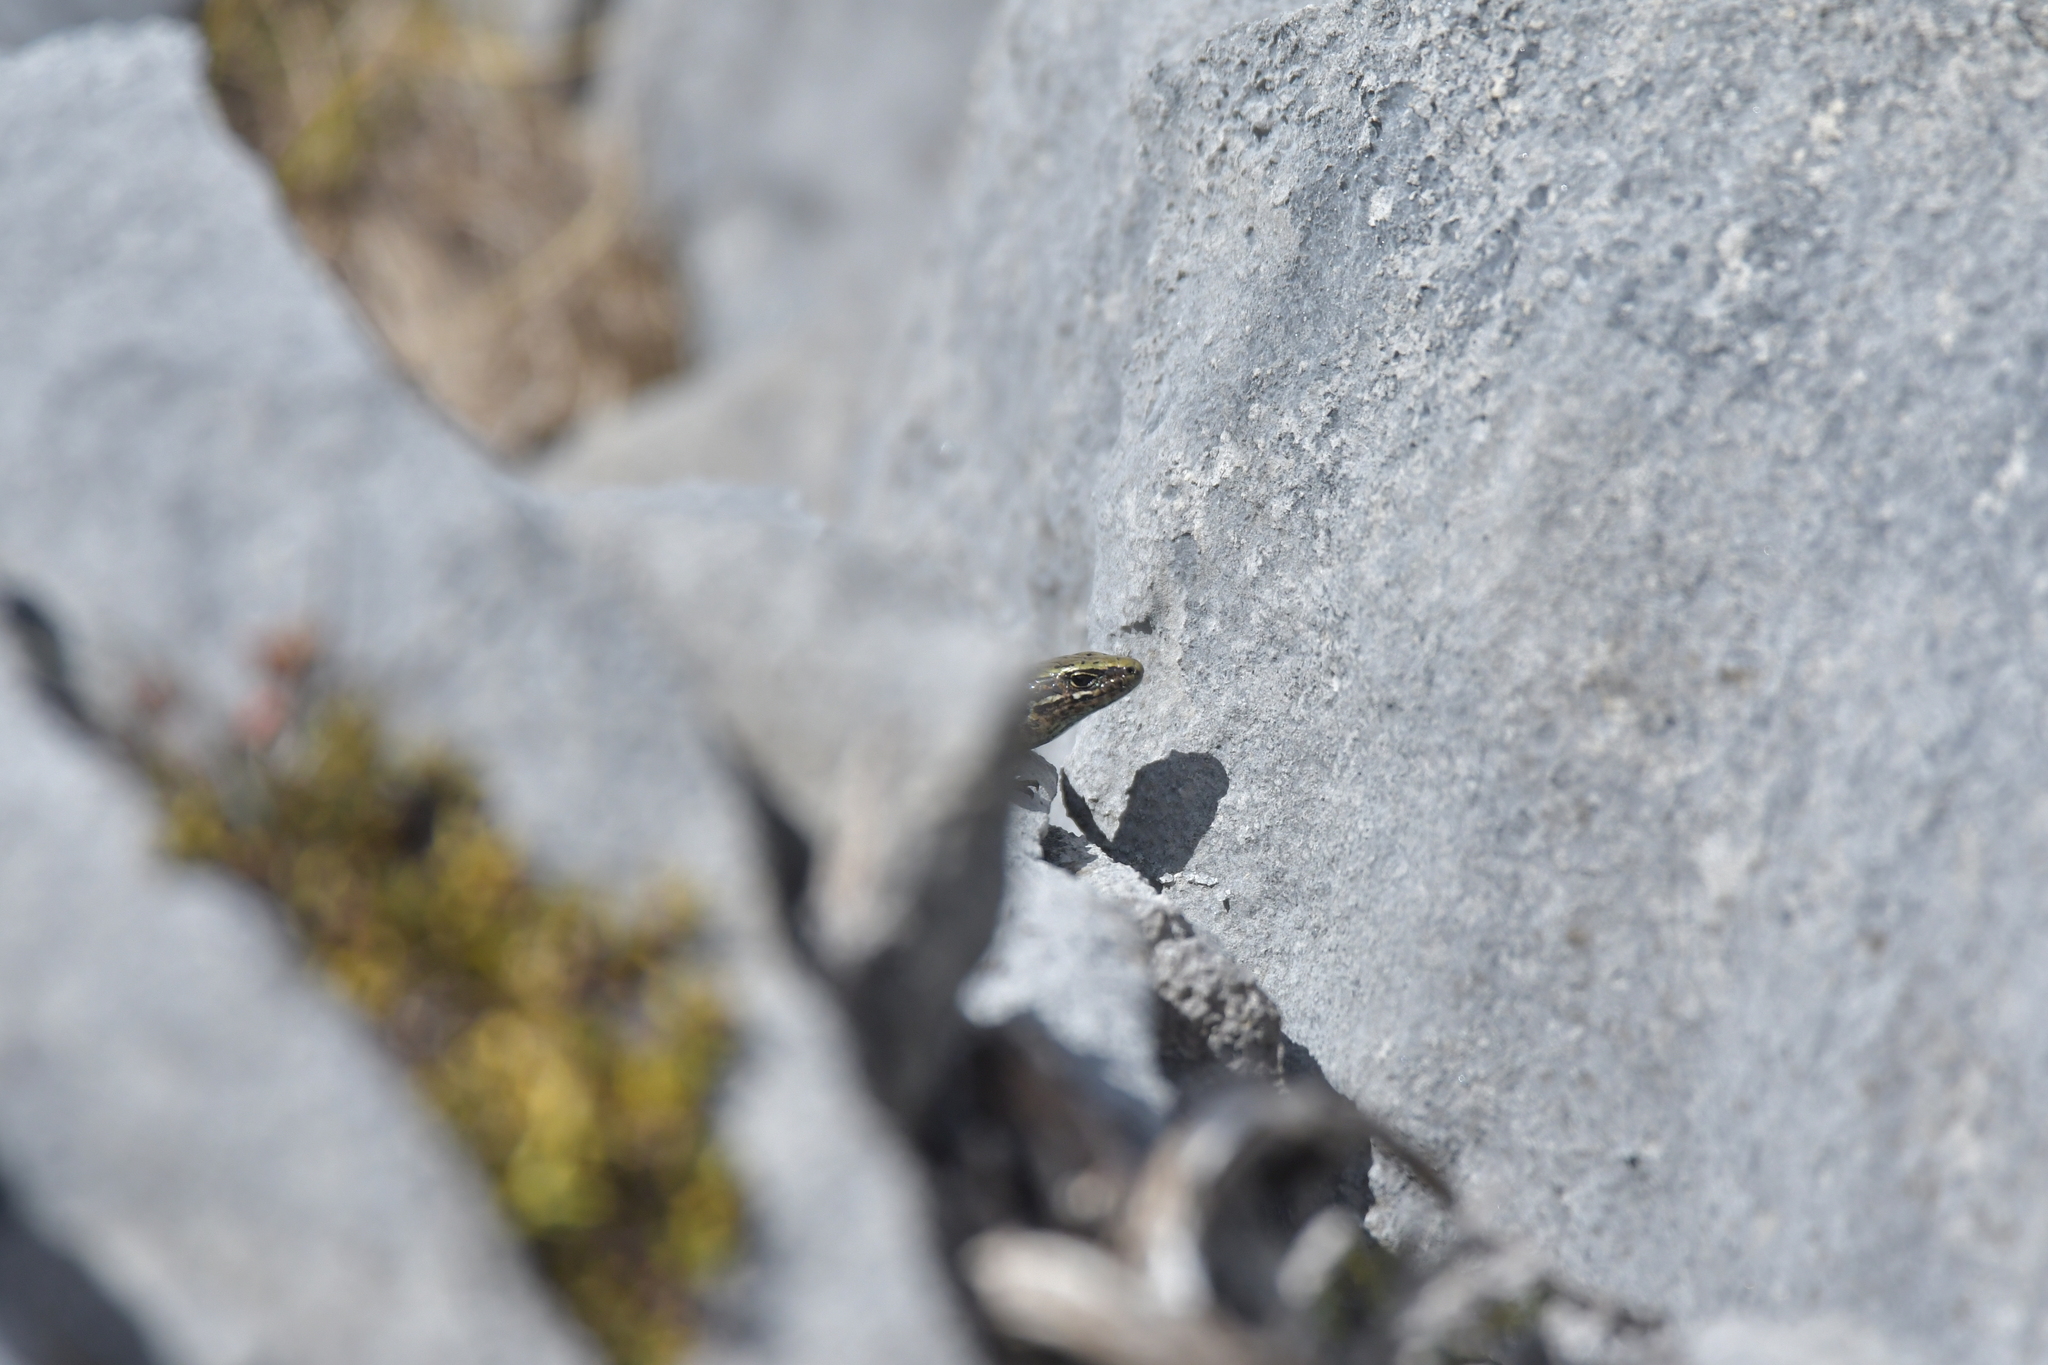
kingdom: Animalia
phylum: Chordata
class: Squamata
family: Scincidae
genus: Oligosoma
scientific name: Oligosoma newmani
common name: Newman’s speckled skink
